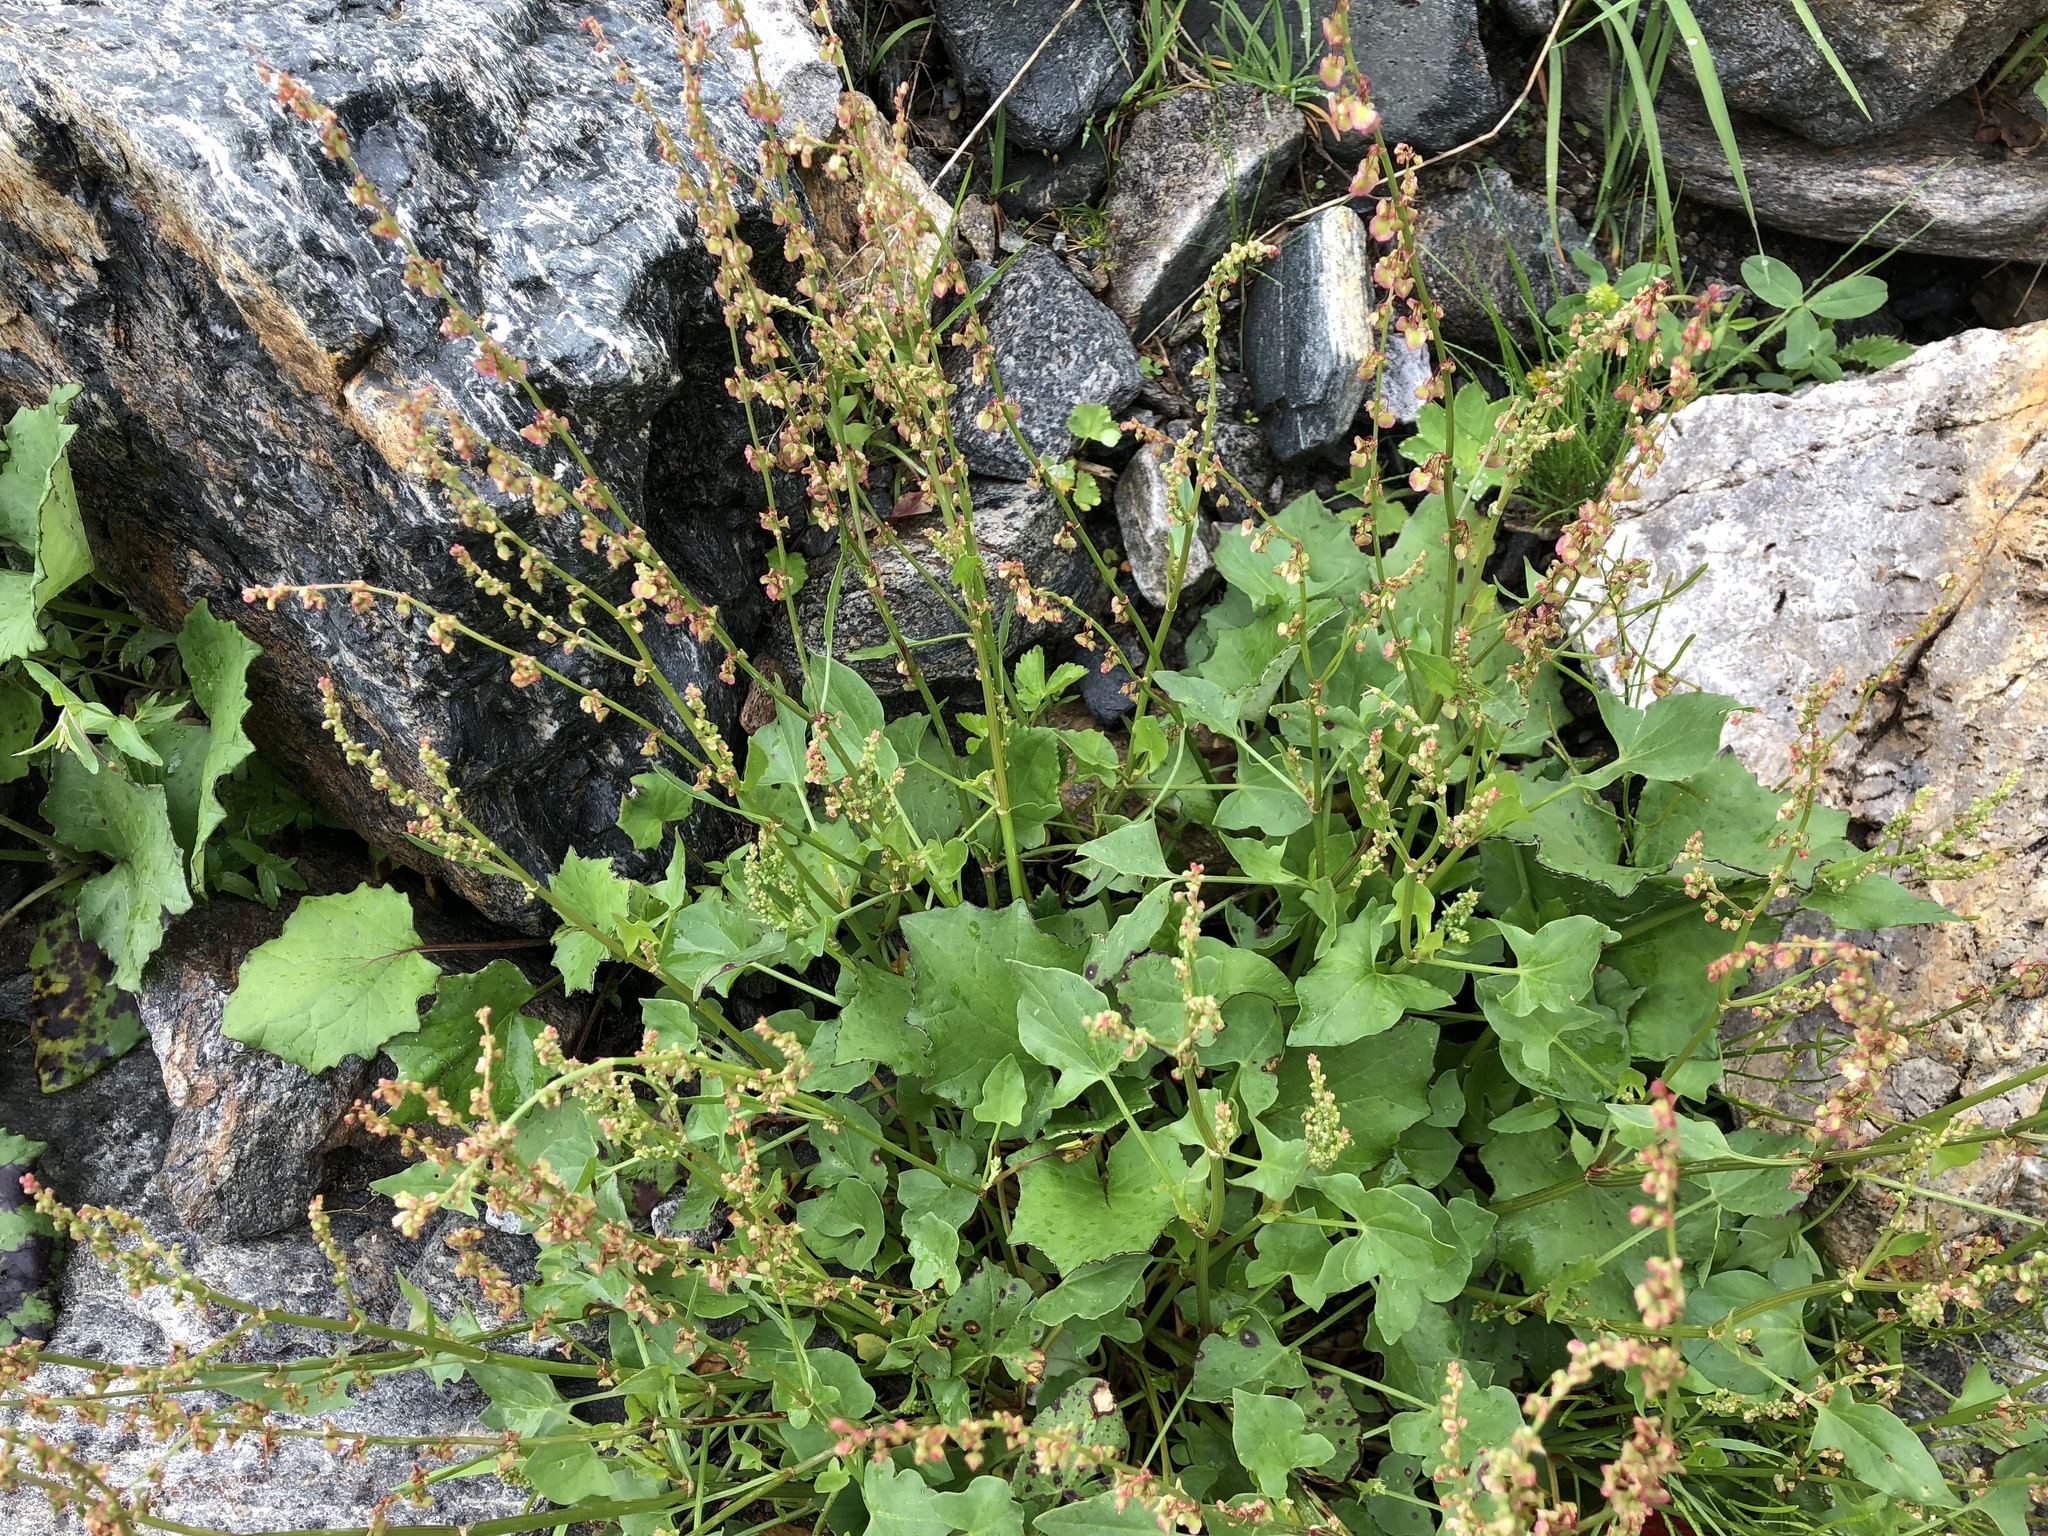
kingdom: Plantae
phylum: Tracheophyta
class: Magnoliopsida
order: Caryophyllales
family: Polygonaceae
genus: Rumex
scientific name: Rumex scutatus
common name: French sorrel
